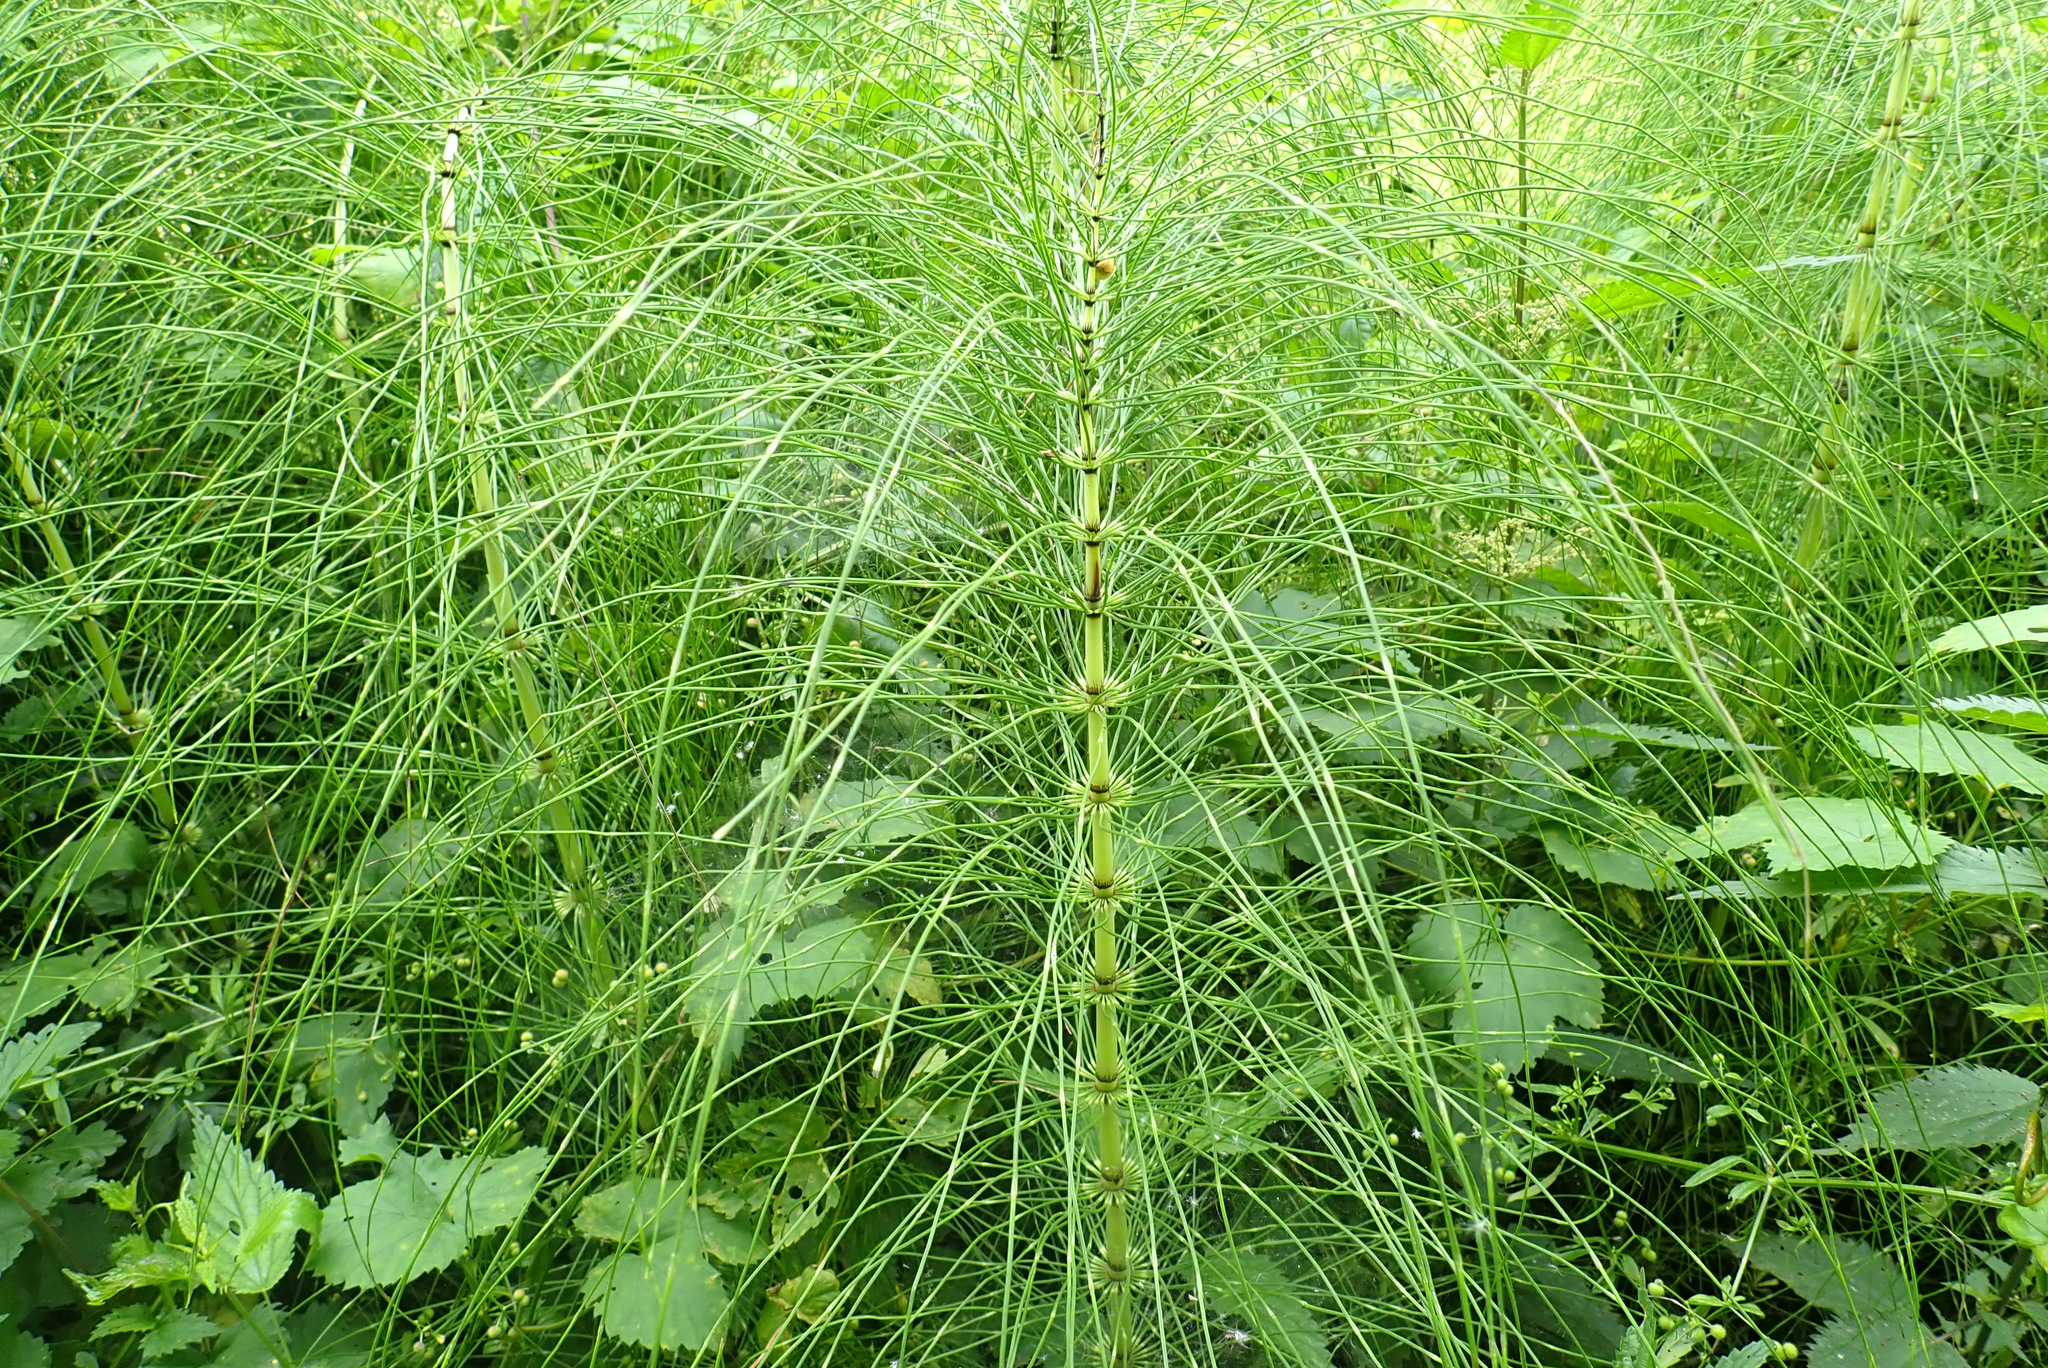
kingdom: Plantae
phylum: Tracheophyta
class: Polypodiopsida
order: Equisetales
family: Equisetaceae
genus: Equisetum
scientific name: Equisetum telmateia
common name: Great horsetail
